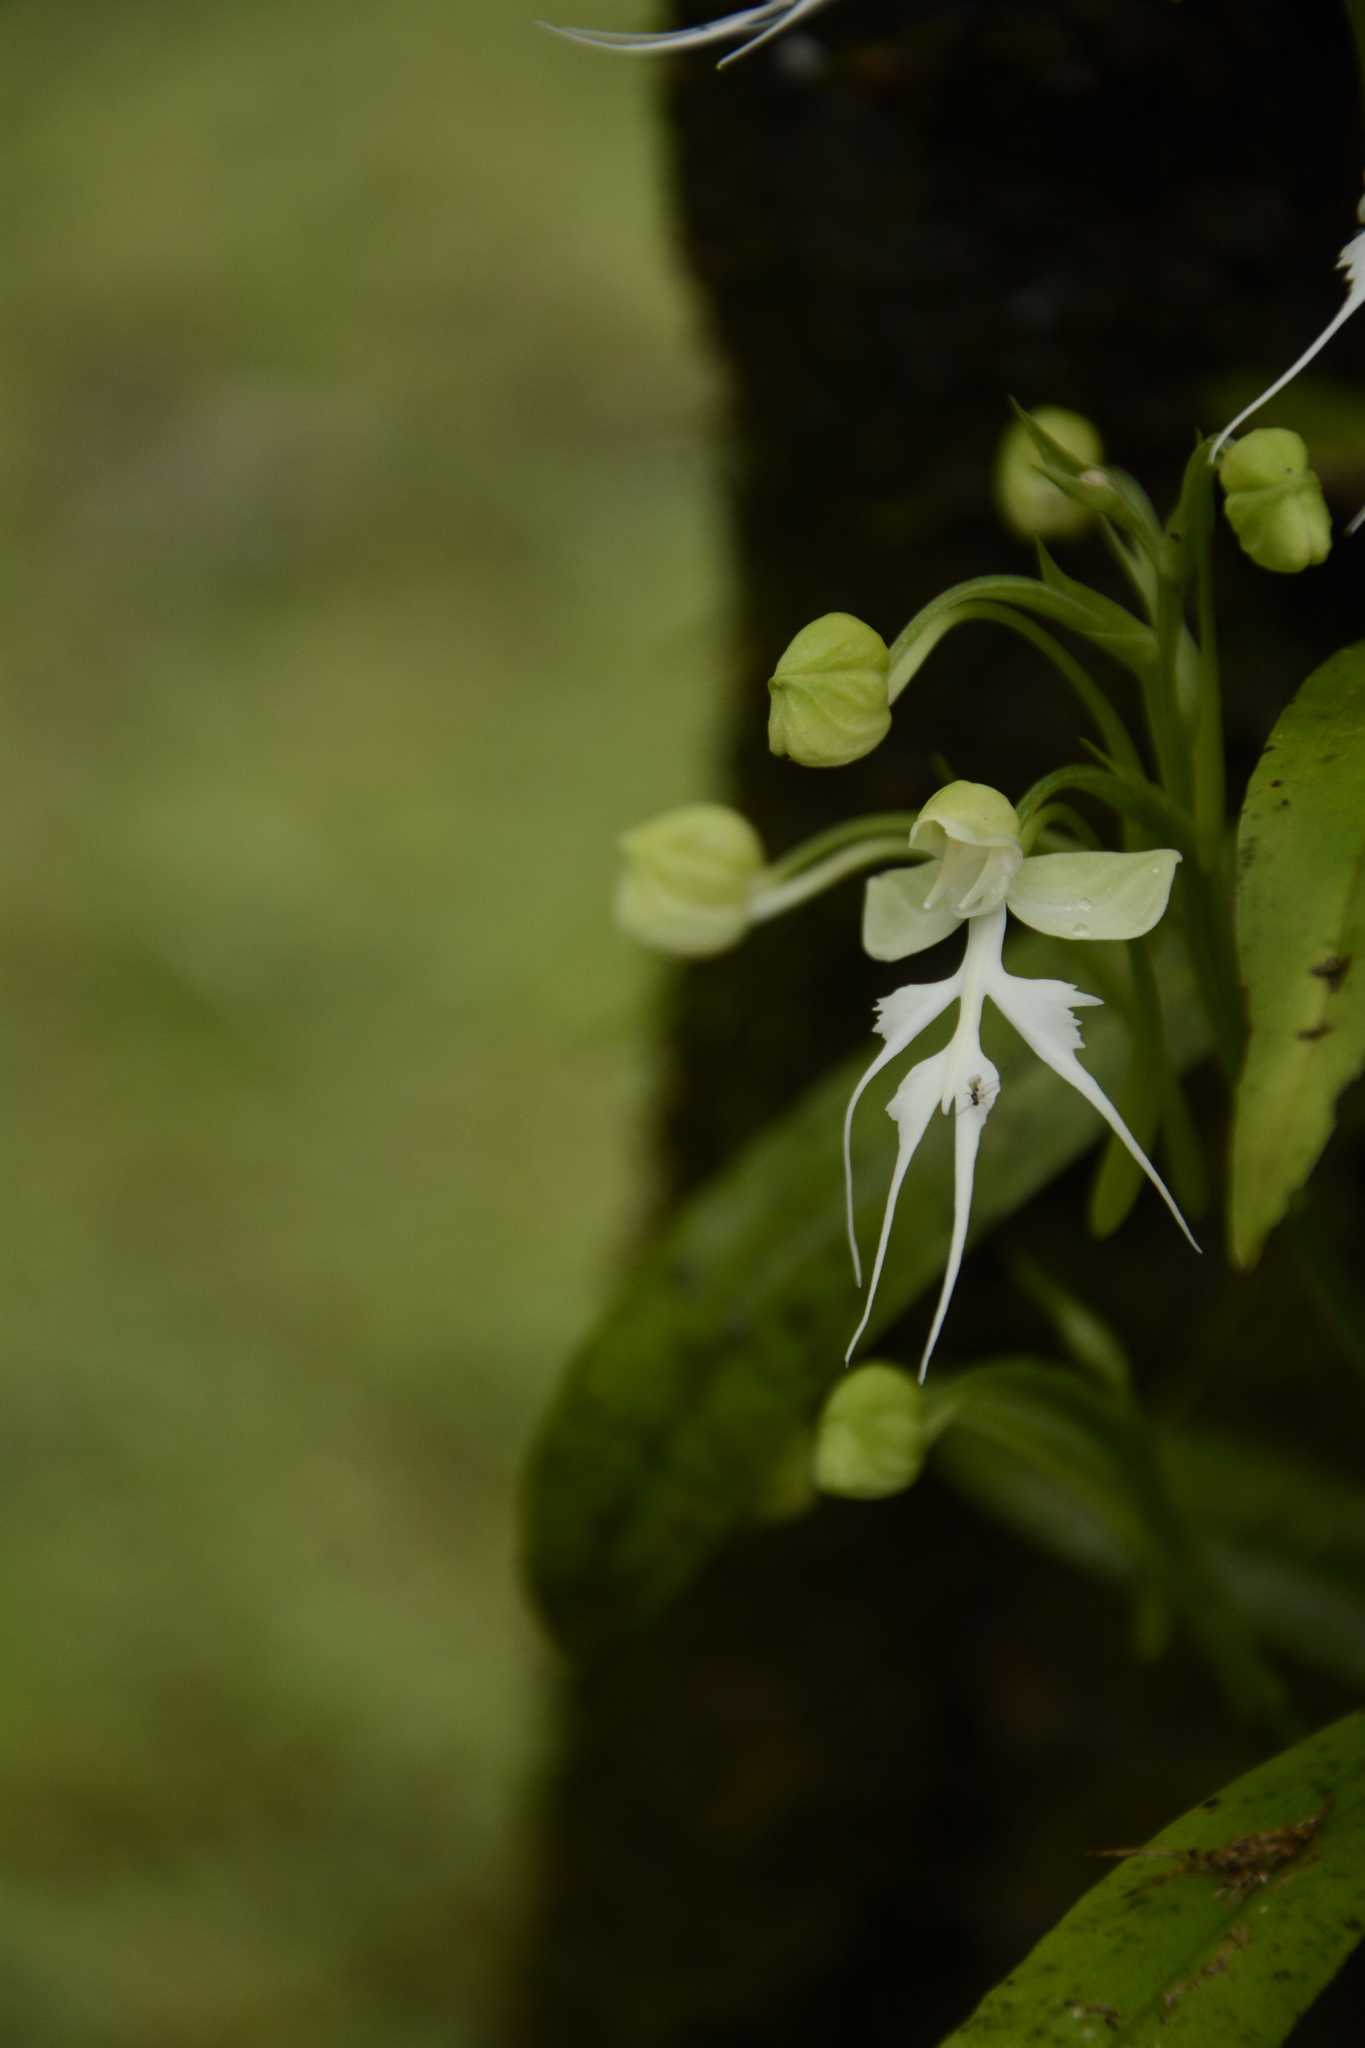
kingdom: Plantae
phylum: Tracheophyta
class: Liliopsida
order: Asparagales
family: Orchidaceae
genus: Habenaria
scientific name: Habenaria crinifera
